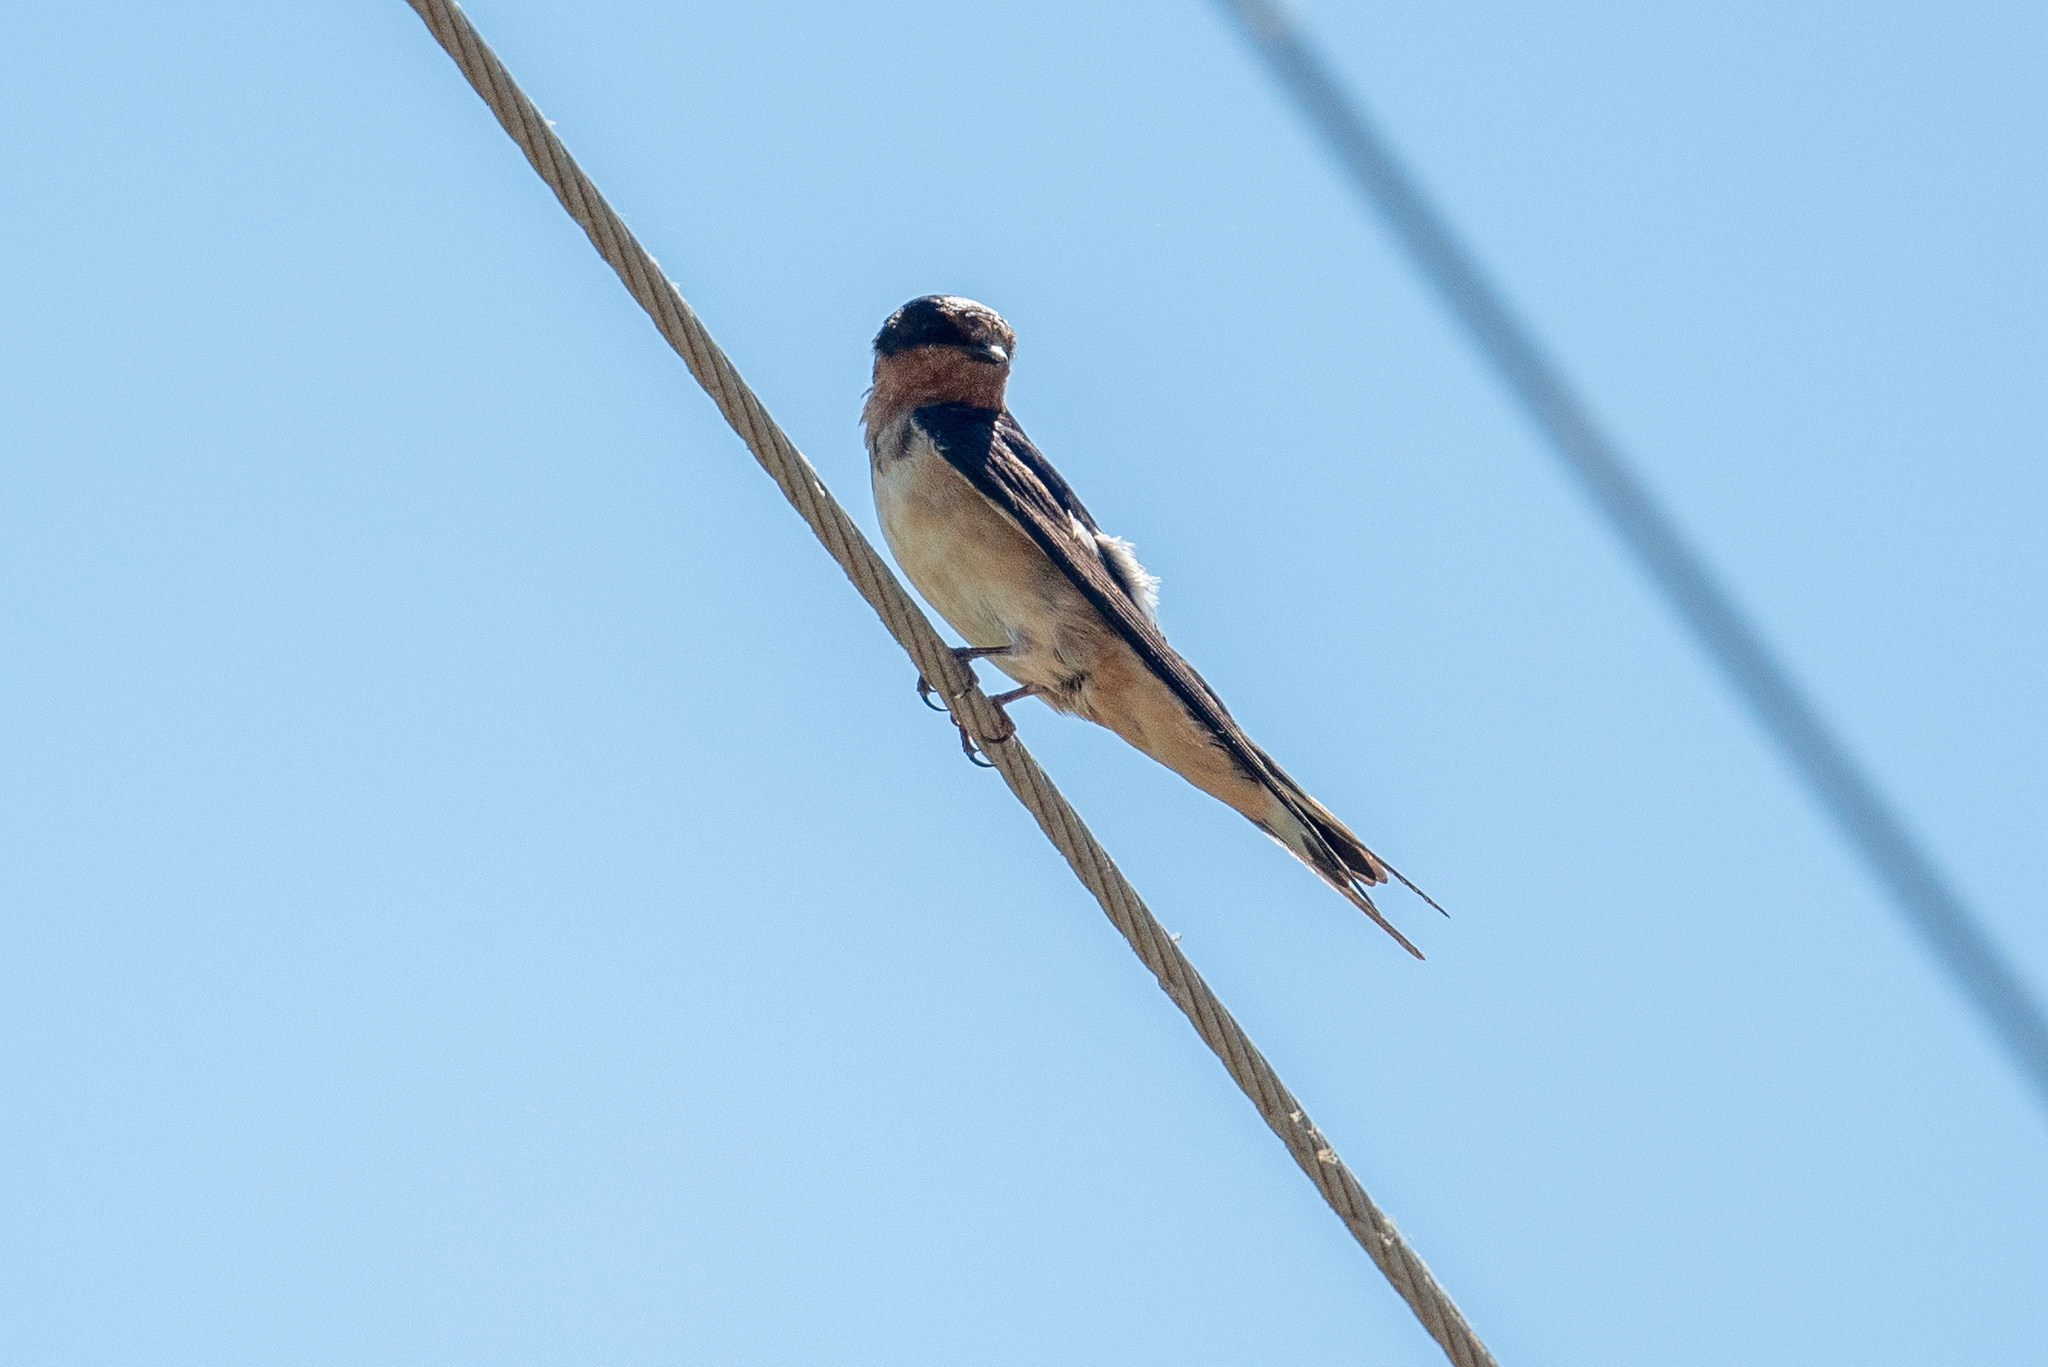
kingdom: Animalia
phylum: Chordata
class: Aves
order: Passeriformes
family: Hirundinidae
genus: Hirundo
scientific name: Hirundo rustica
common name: Barn swallow
